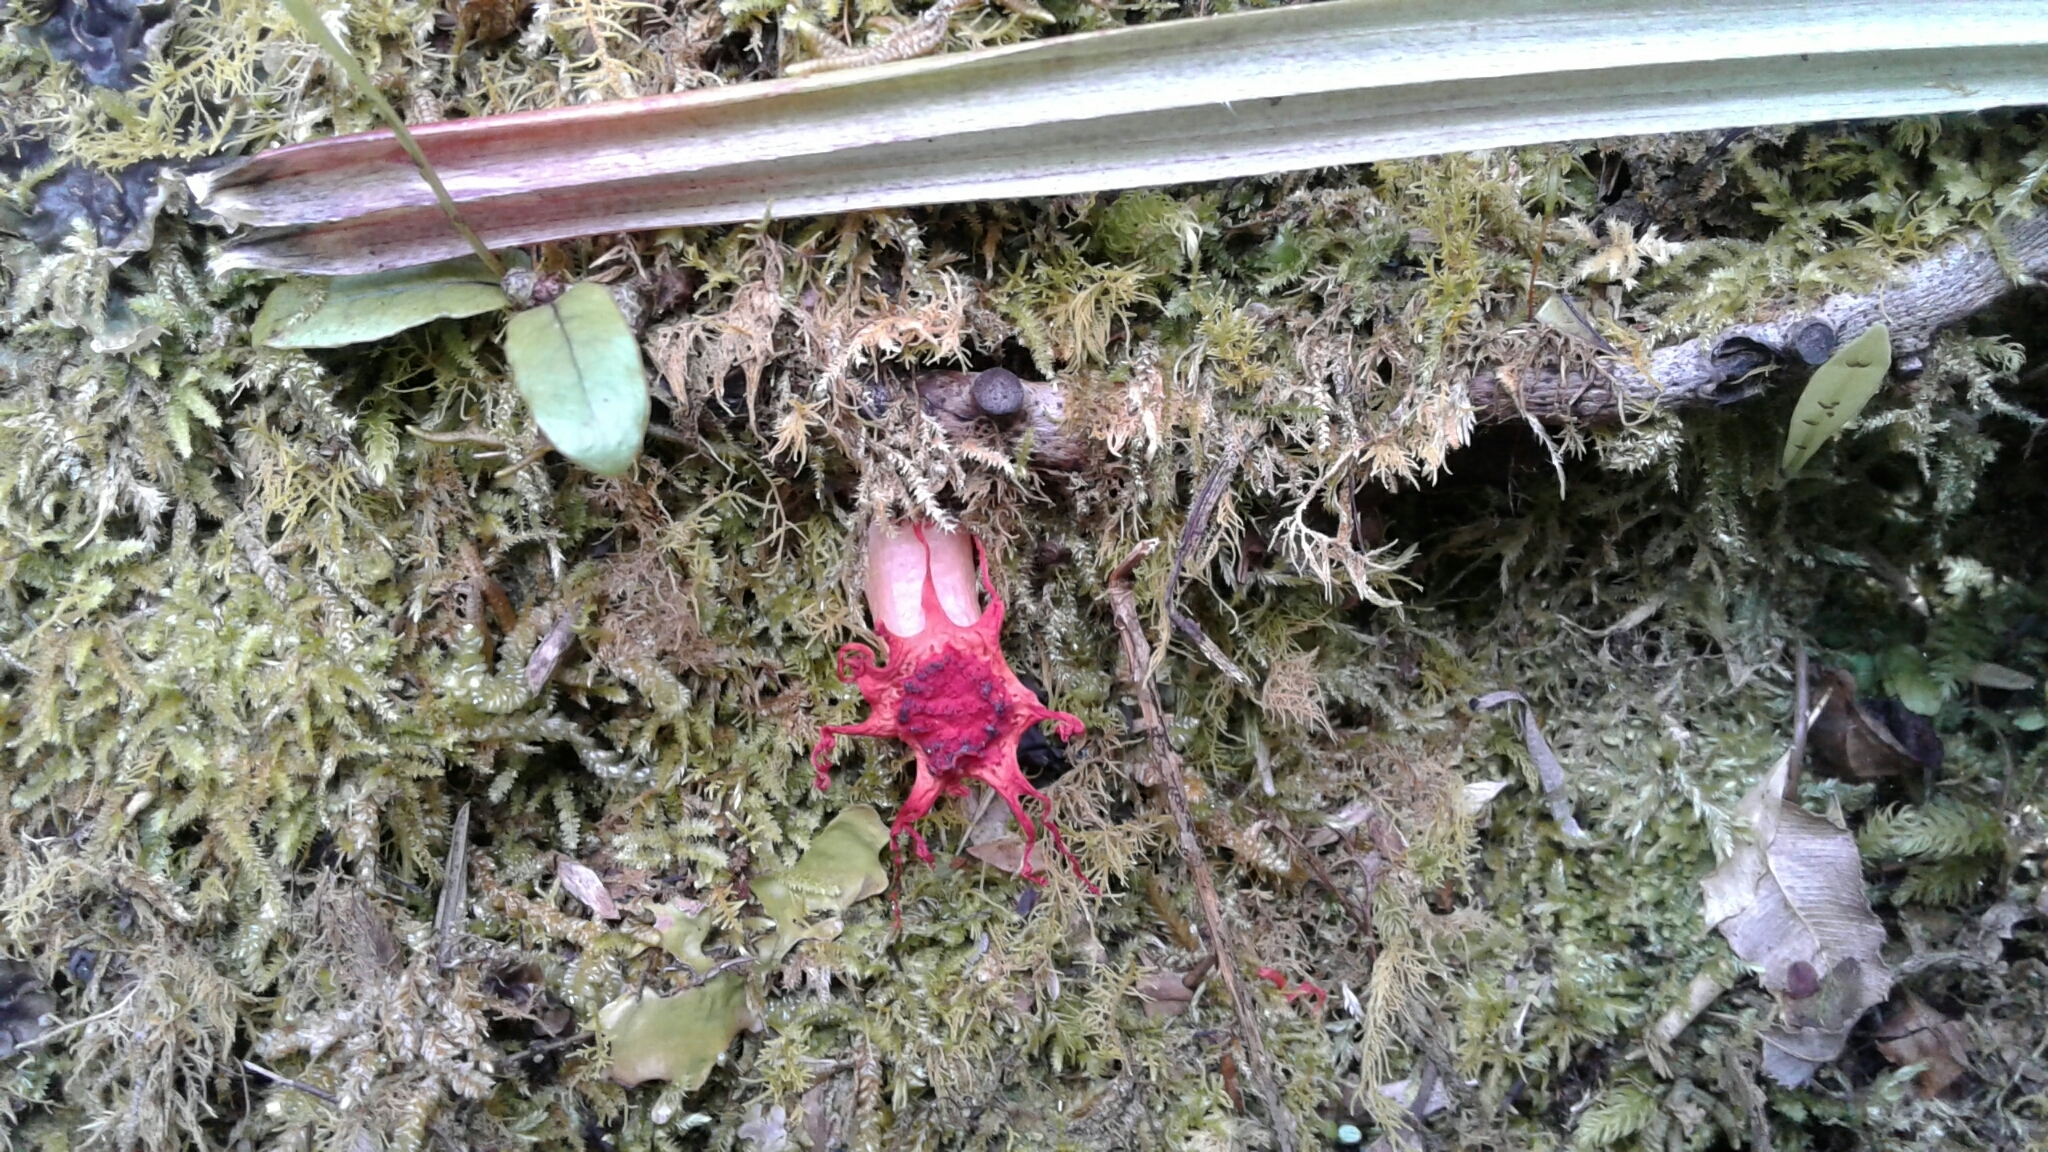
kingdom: Fungi
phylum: Basidiomycota
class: Agaricomycetes
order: Phallales
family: Phallaceae
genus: Aseroe
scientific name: Aseroe rubra
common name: Starfish fungus
